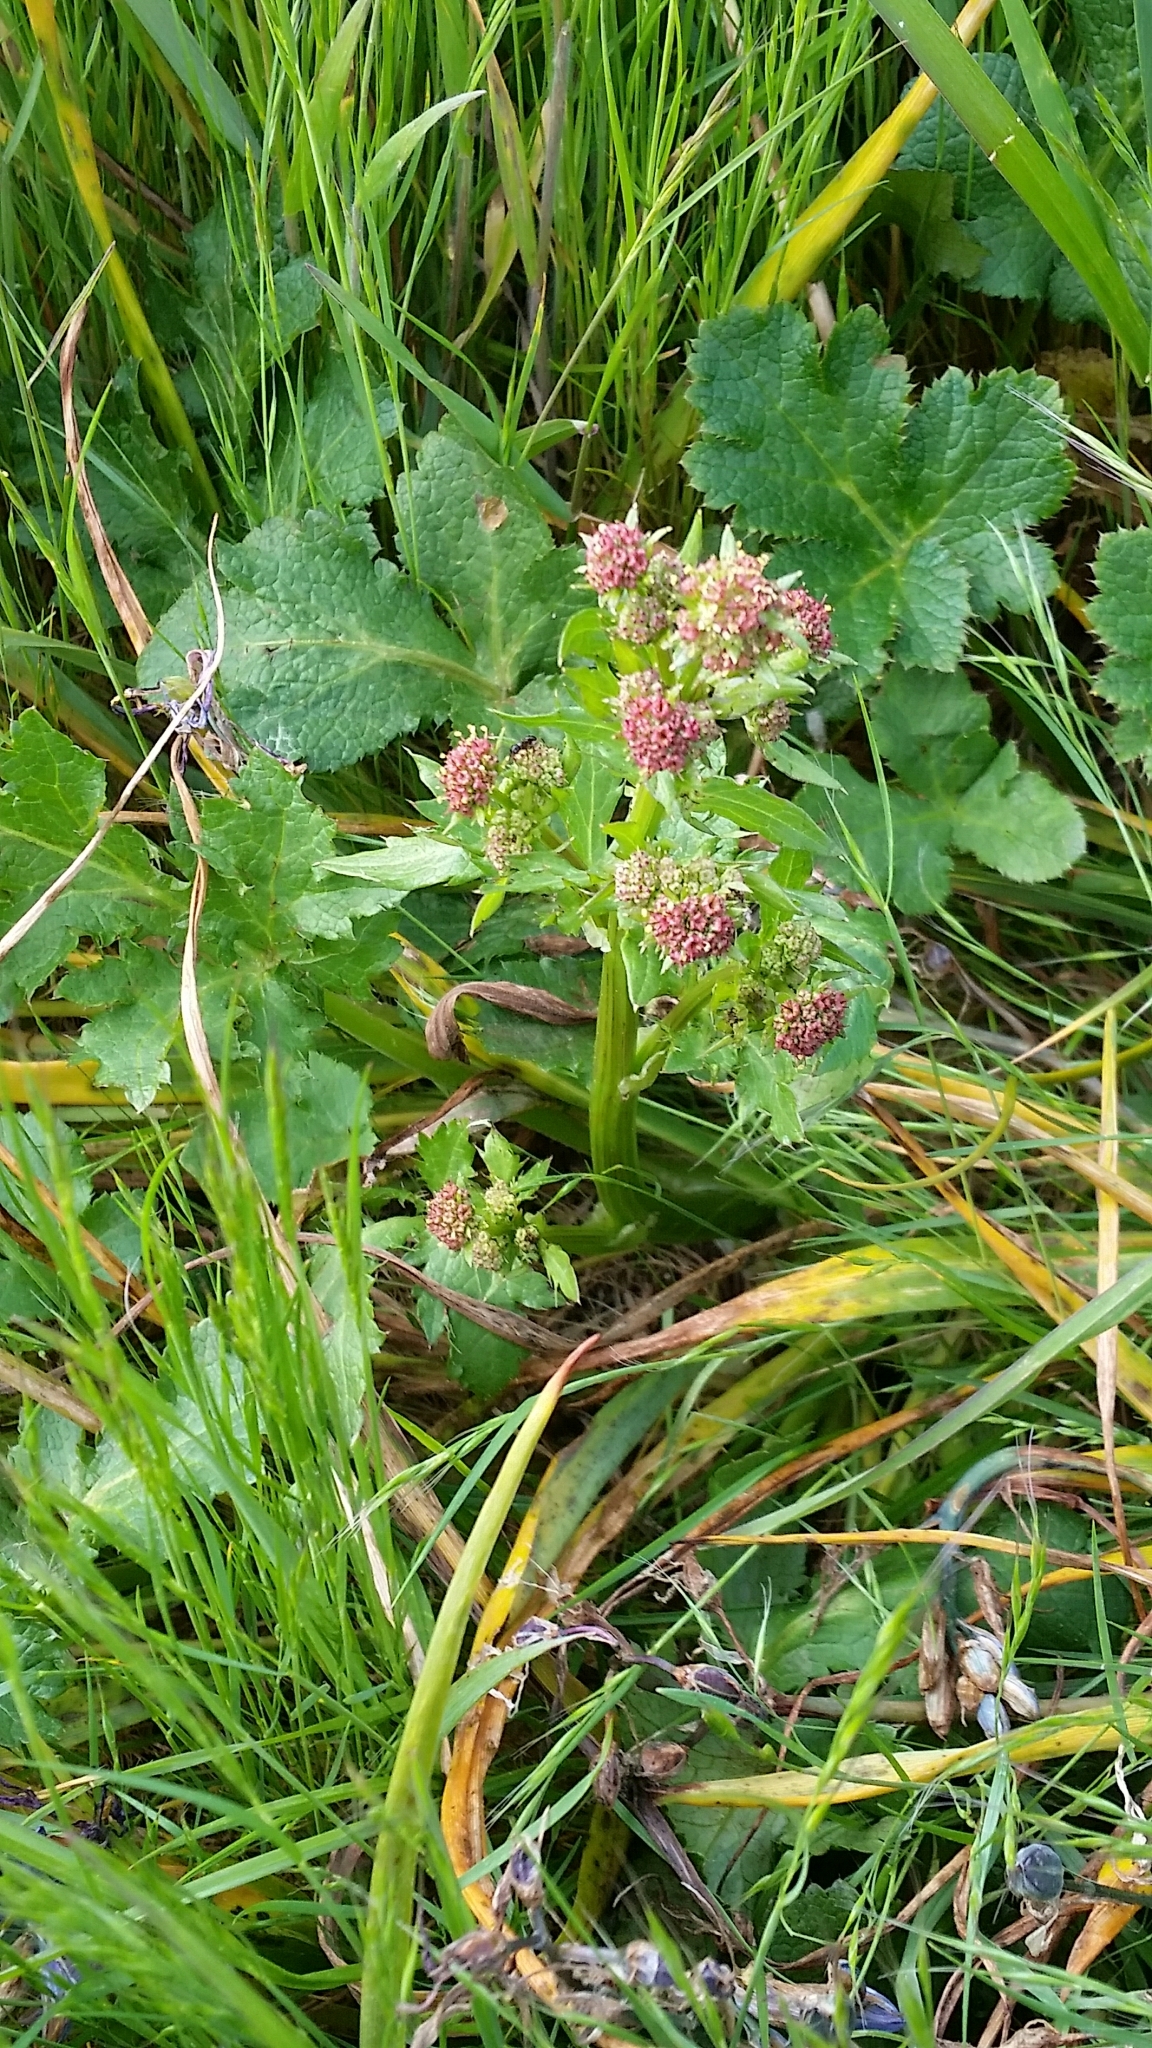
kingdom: Plantae
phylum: Tracheophyta
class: Magnoliopsida
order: Apiales
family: Apiaceae
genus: Sanicula
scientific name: Sanicula crassicaulis
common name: Western snakeroot
